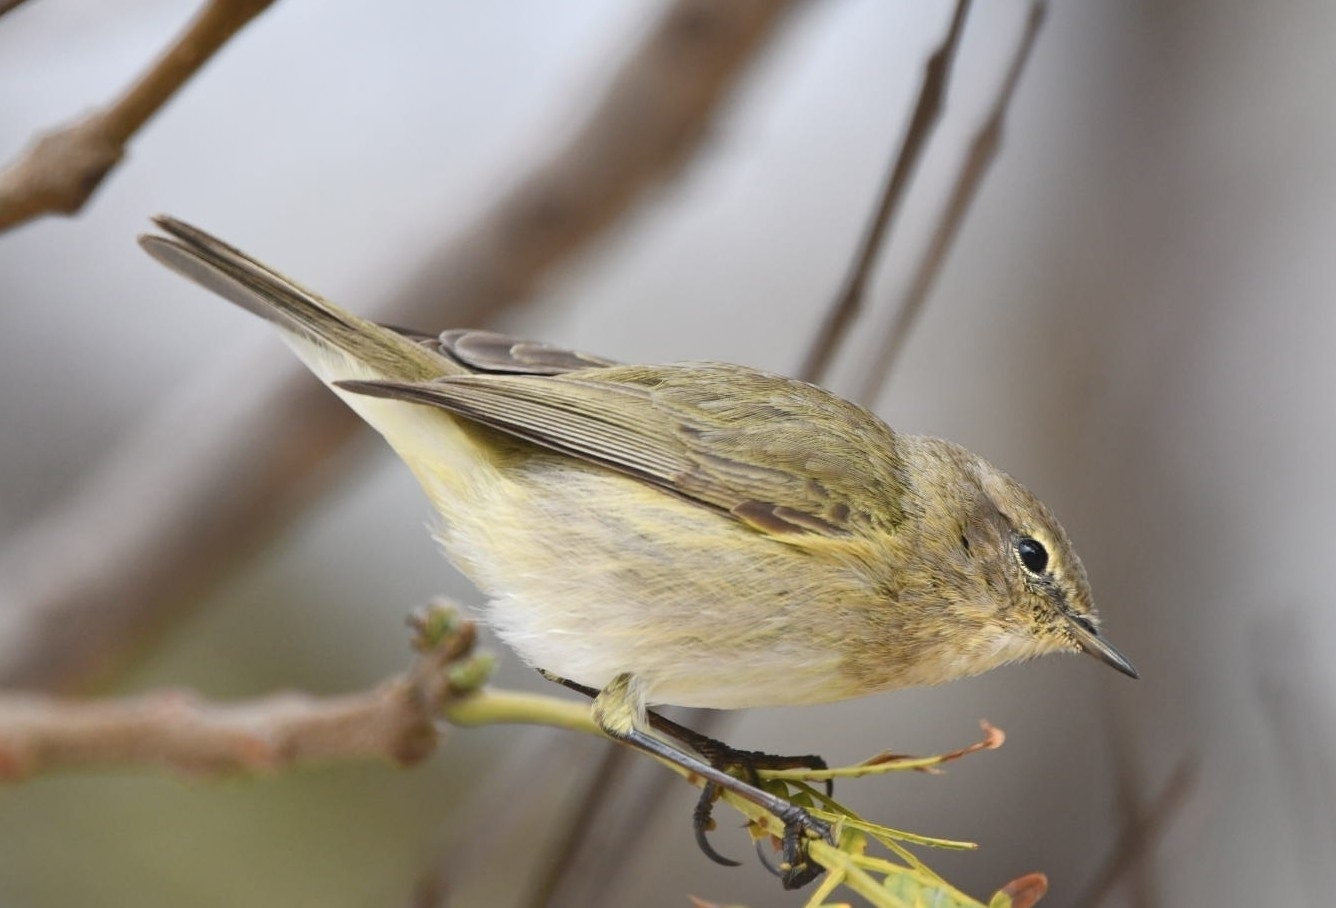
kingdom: Animalia
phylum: Chordata
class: Aves
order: Passeriformes
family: Phylloscopidae
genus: Phylloscopus
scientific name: Phylloscopus collybita
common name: Common chiffchaff
